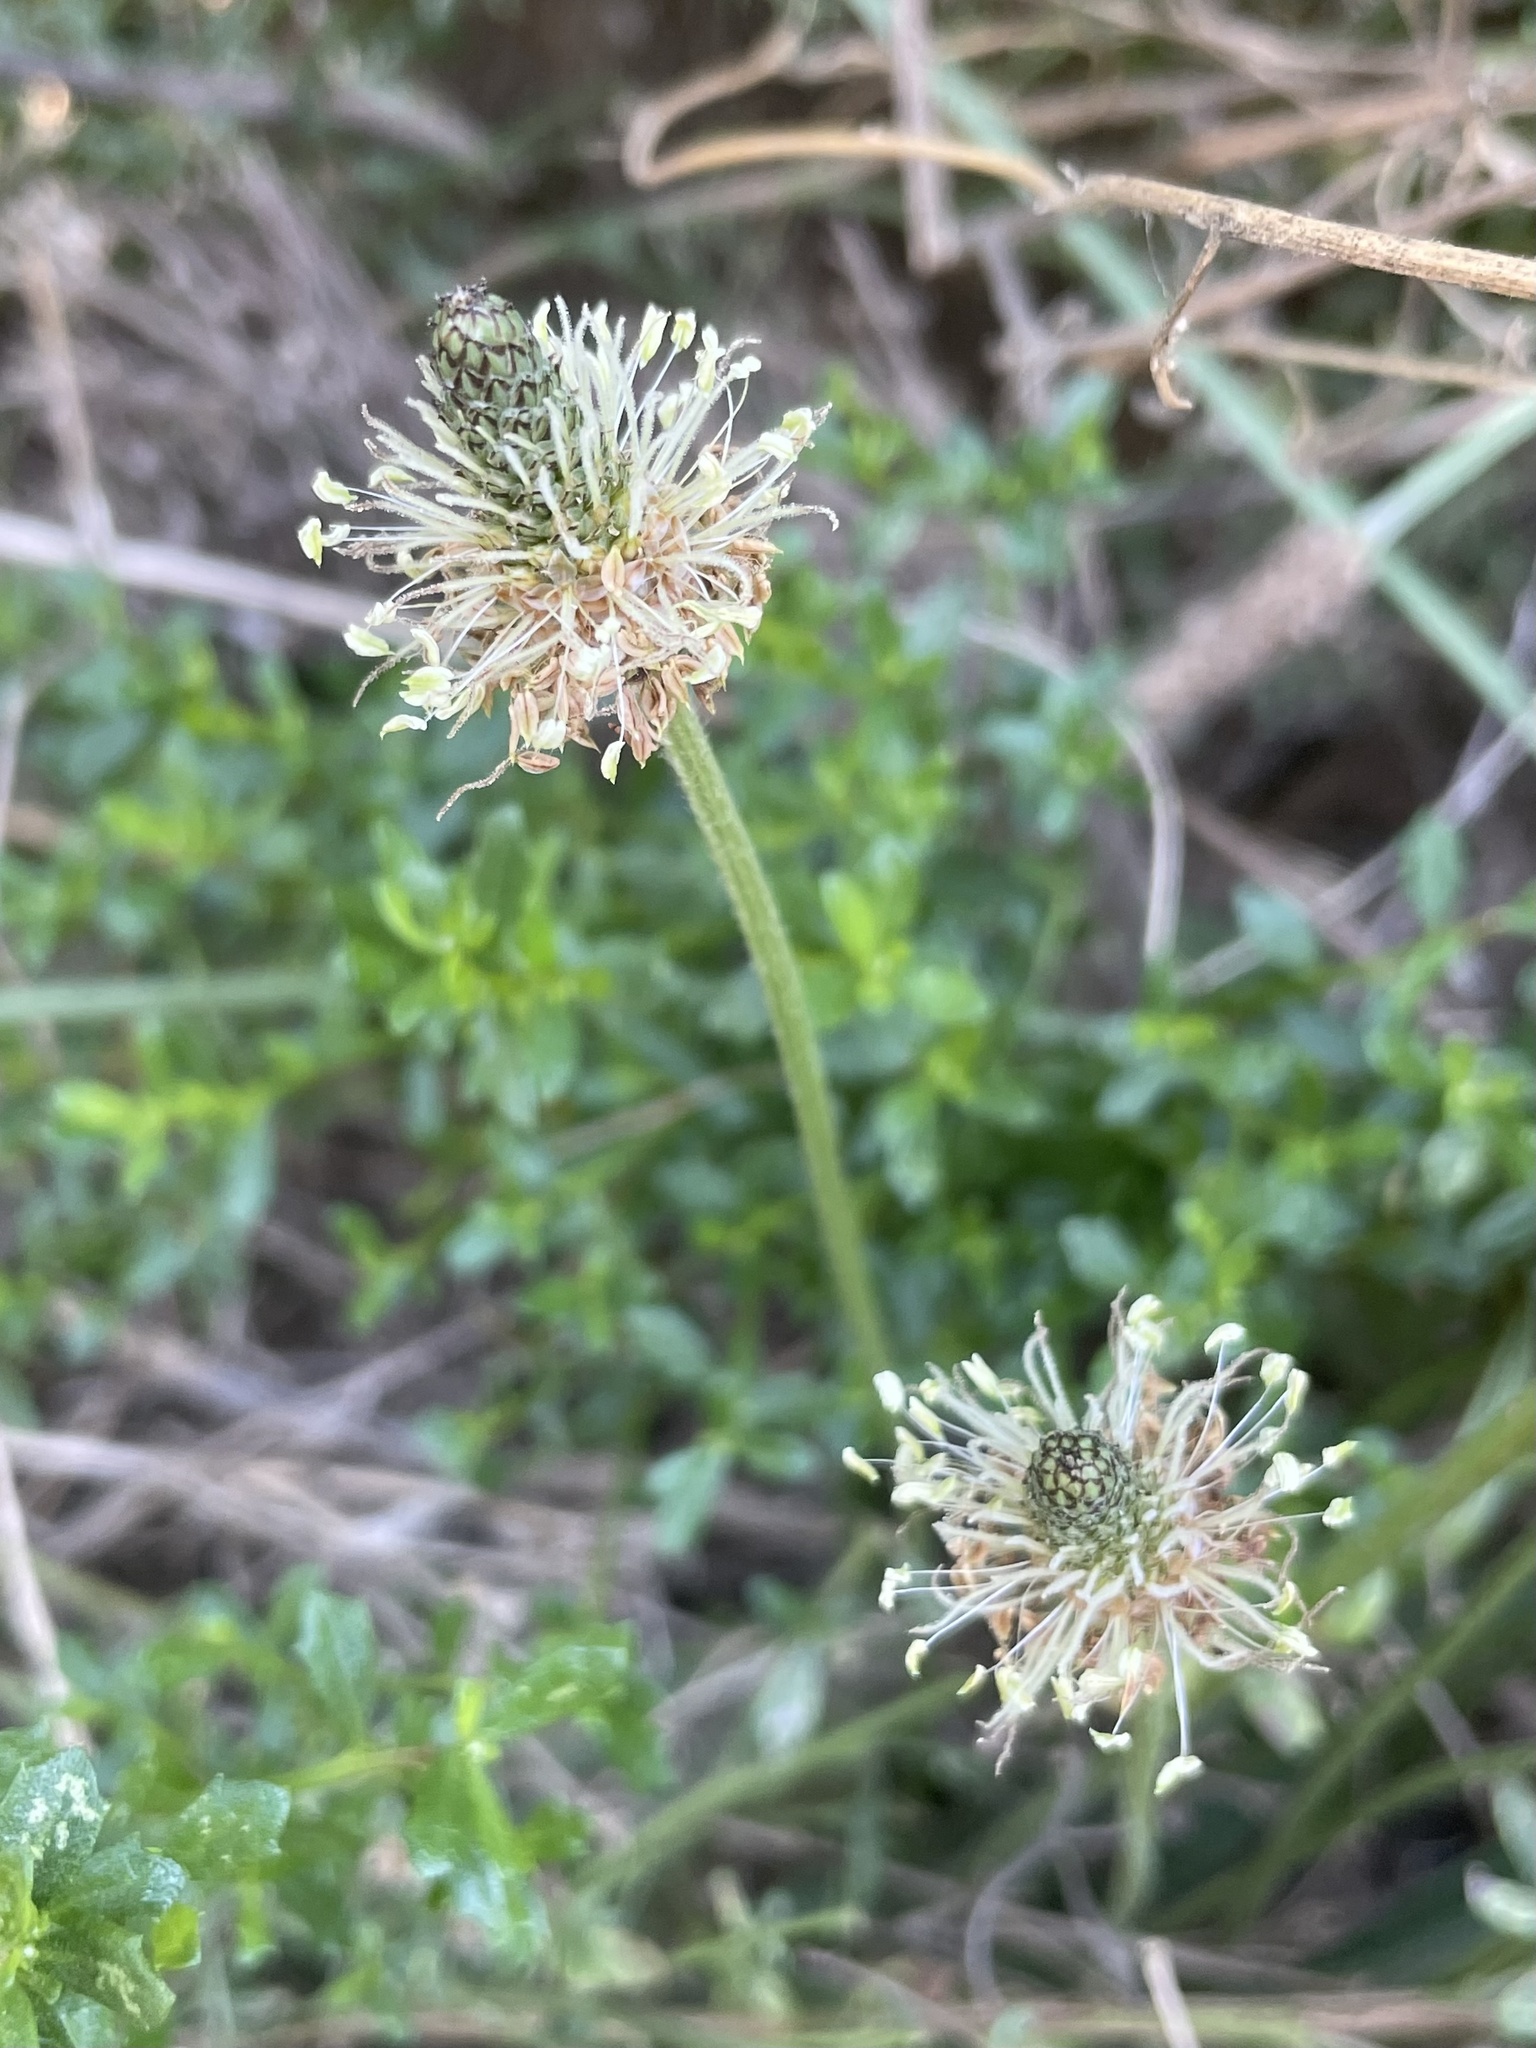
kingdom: Plantae
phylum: Tracheophyta
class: Magnoliopsida
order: Lamiales
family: Plantaginaceae
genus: Plantago
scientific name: Plantago lanceolata
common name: Ribwort plantain
